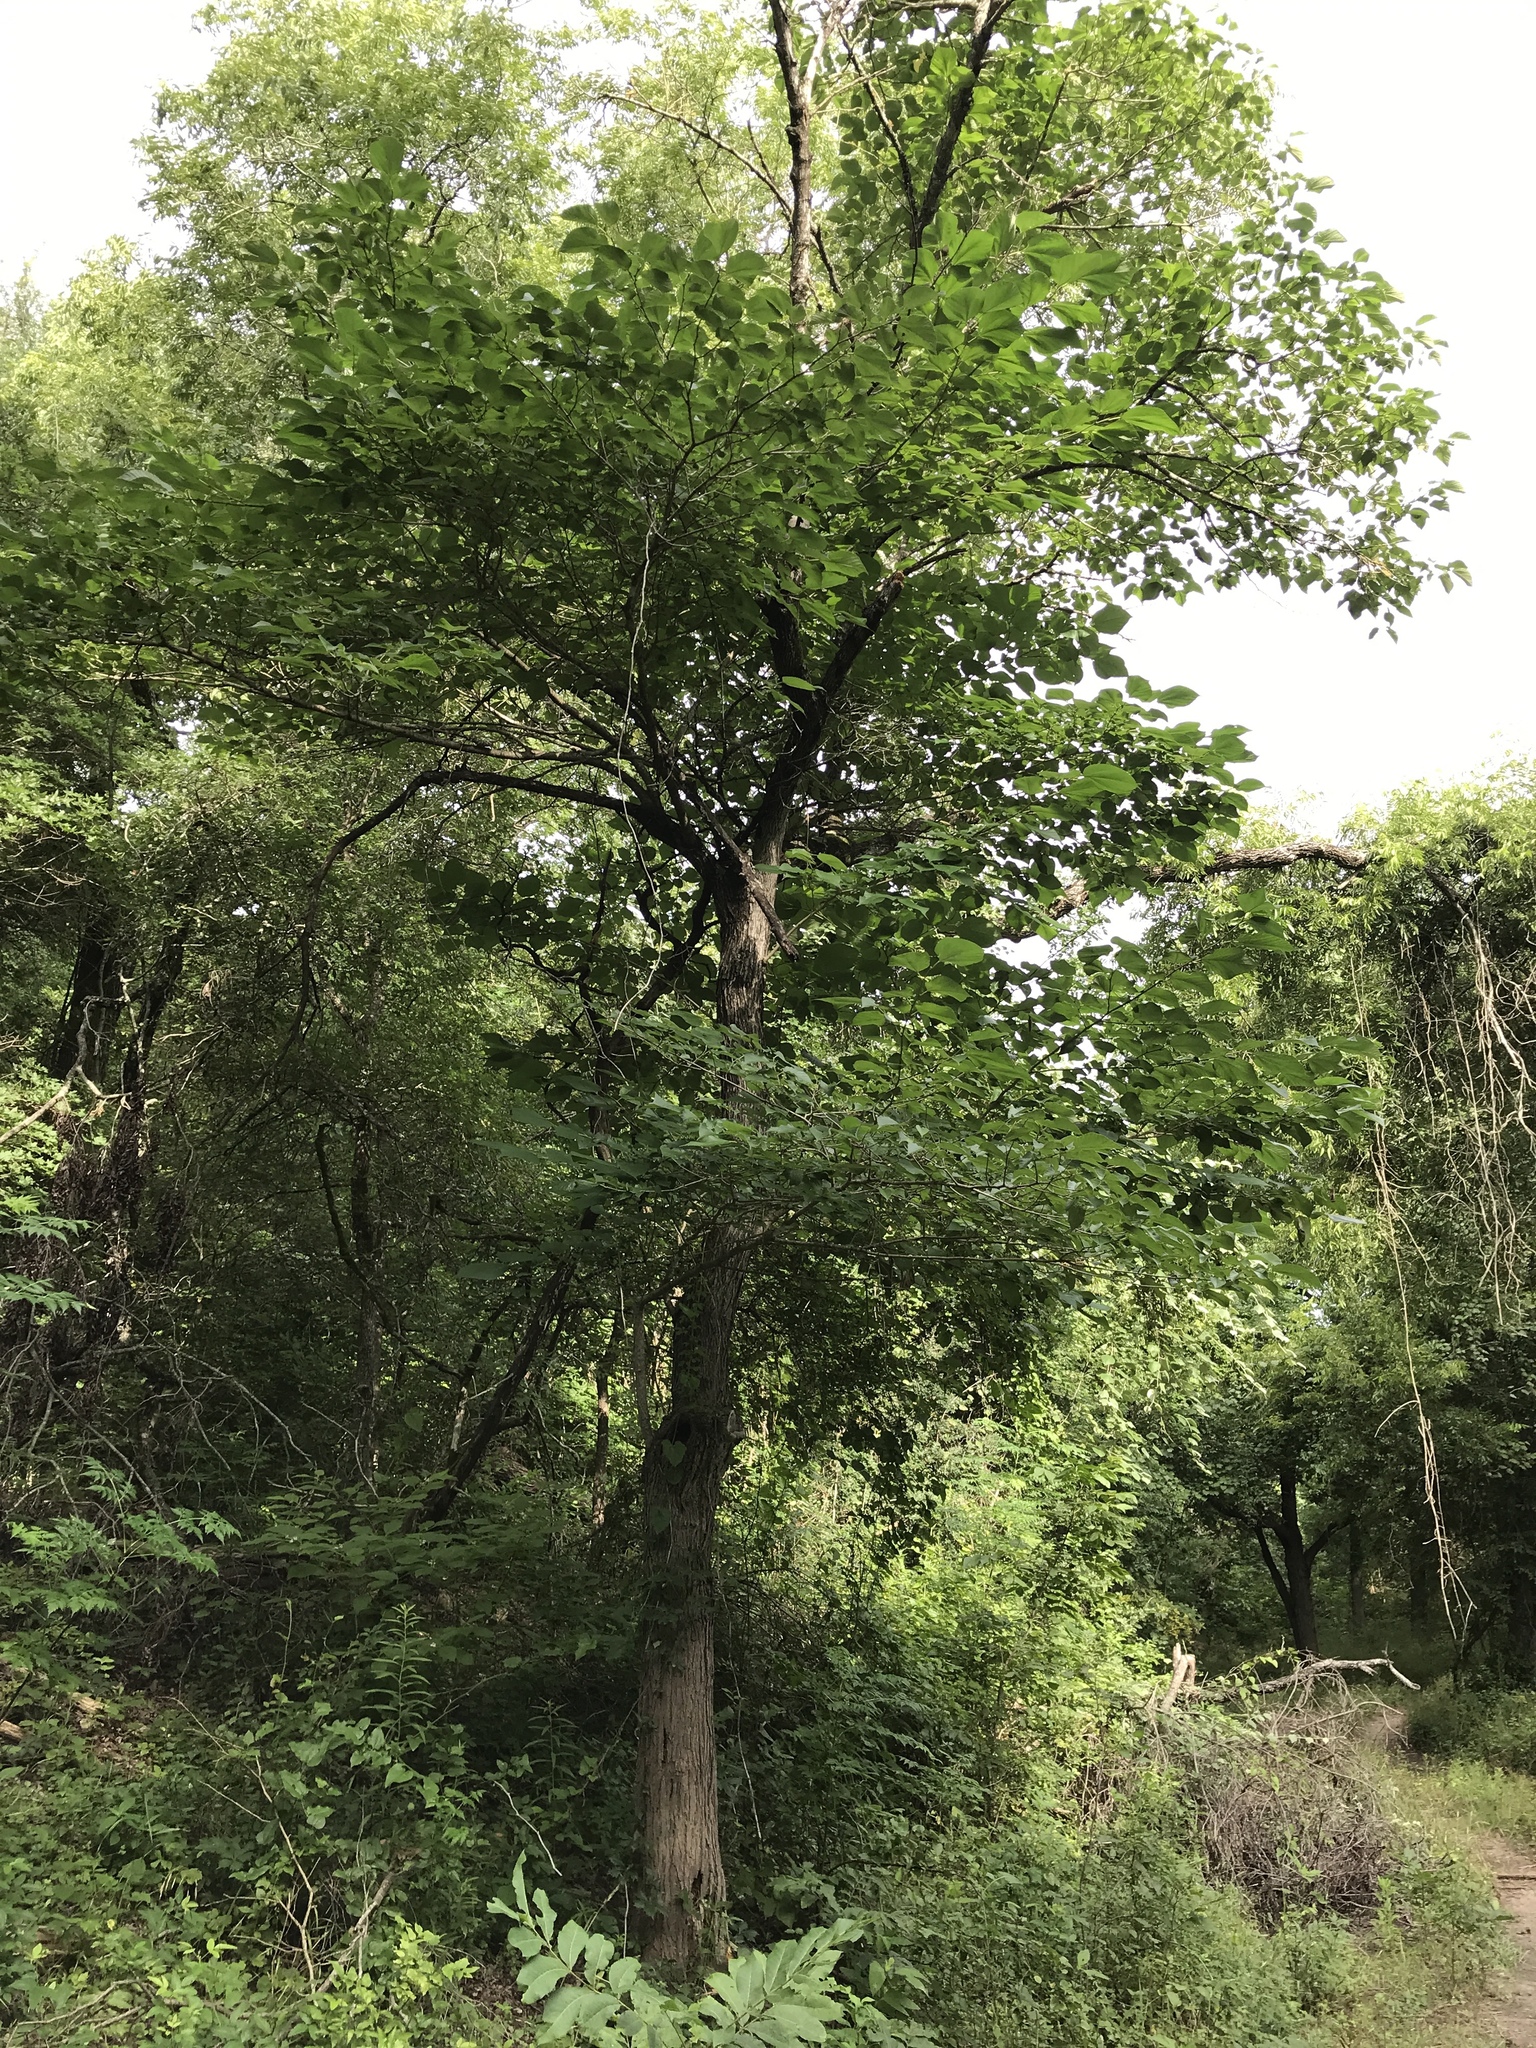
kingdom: Plantae
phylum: Tracheophyta
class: Magnoliopsida
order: Rosales
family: Moraceae
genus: Morus
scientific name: Morus rubra
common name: Red mulberry
